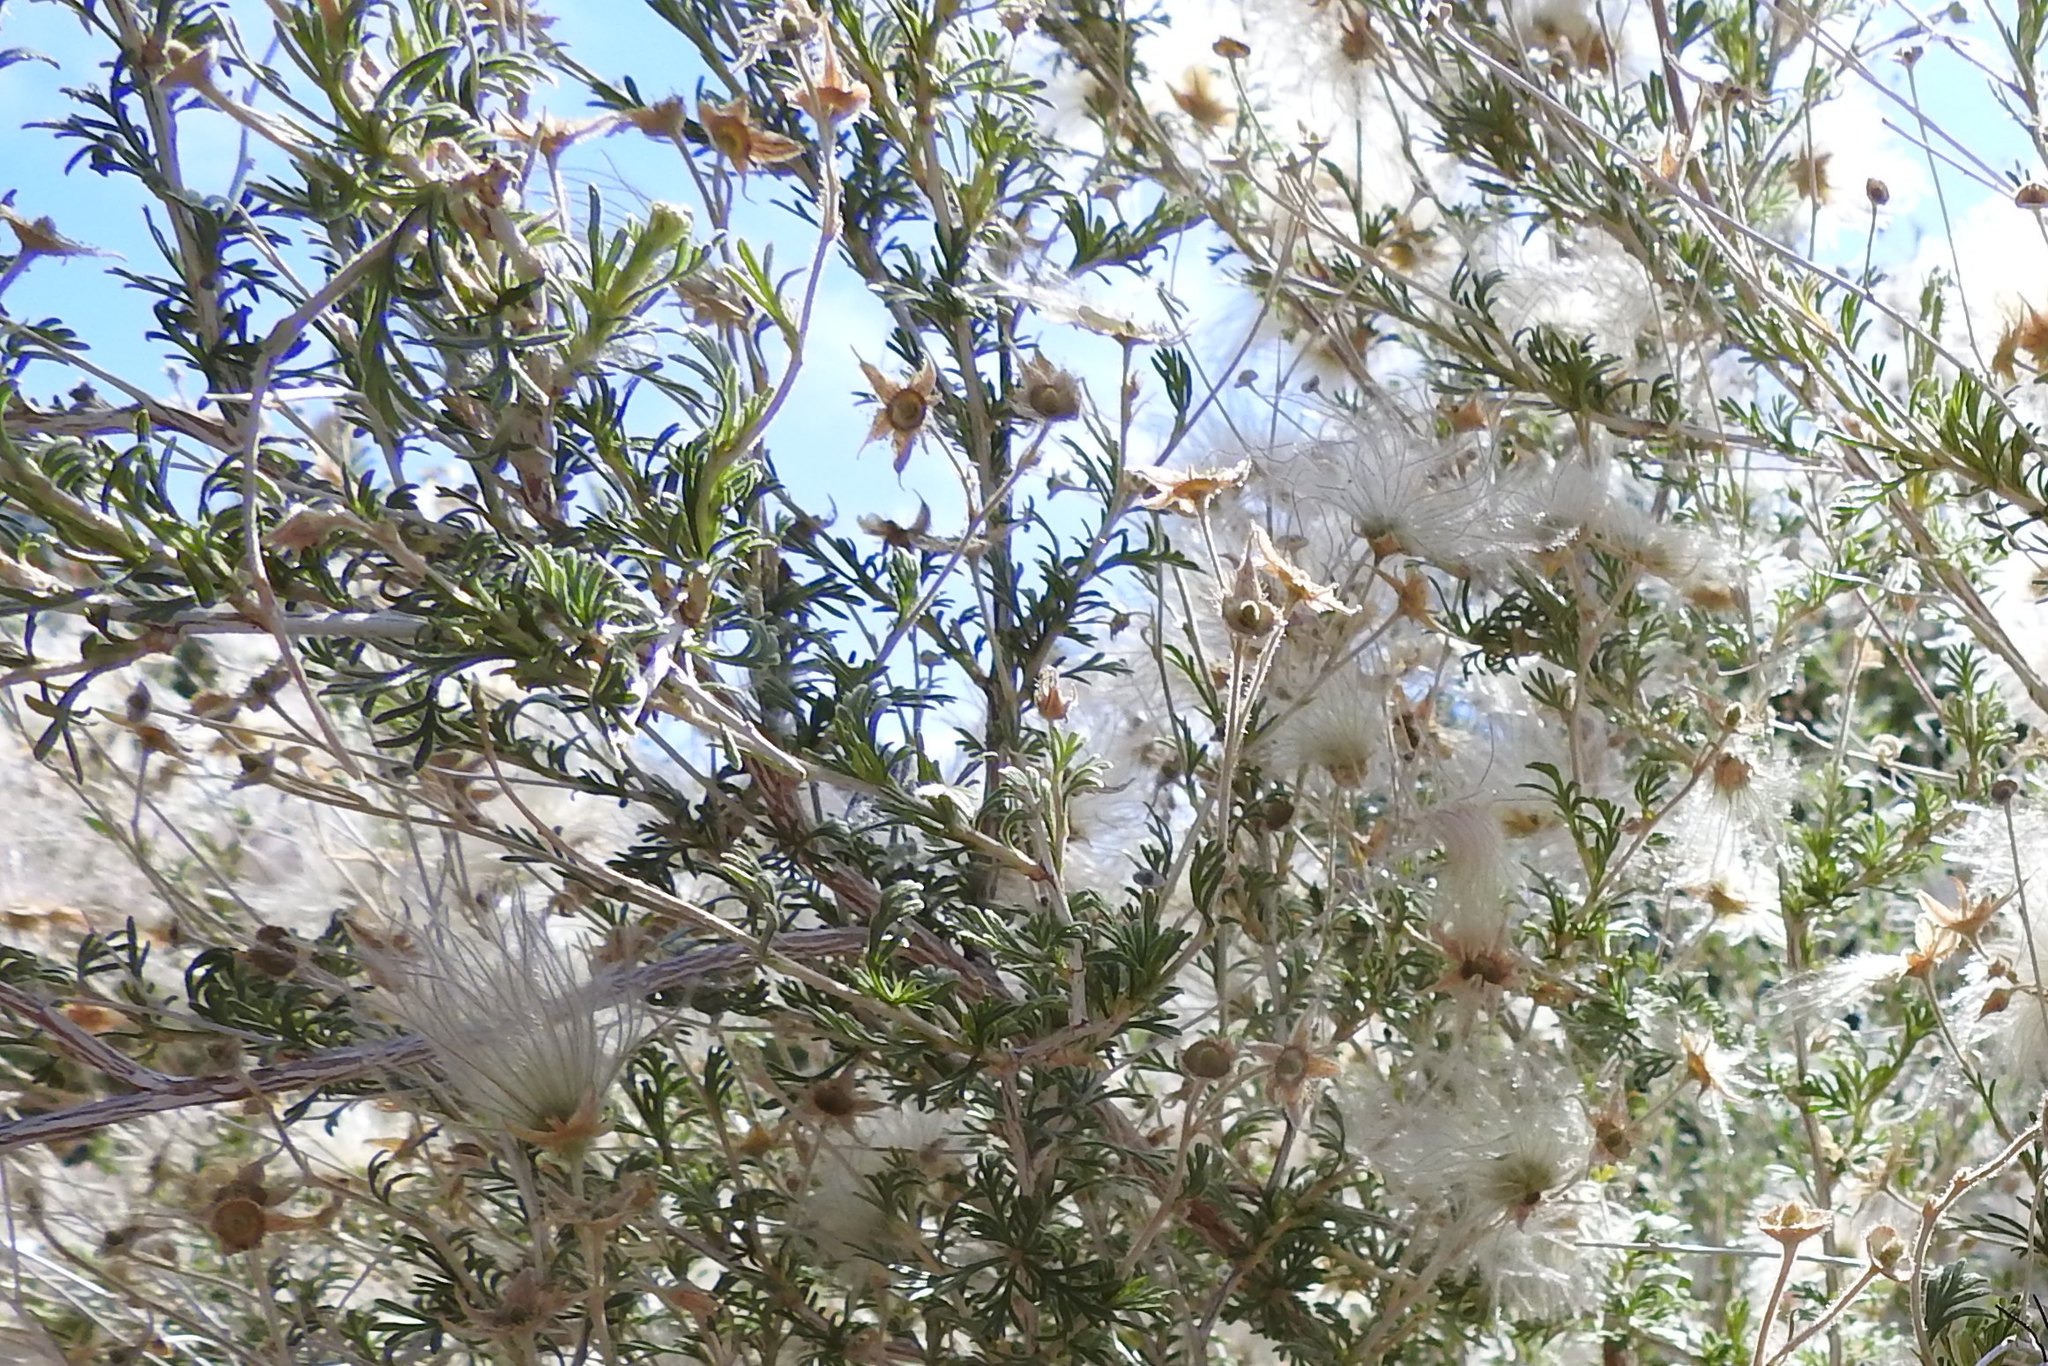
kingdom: Plantae
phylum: Tracheophyta
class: Magnoliopsida
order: Rosales
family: Rosaceae
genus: Fallugia
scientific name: Fallugia paradoxa
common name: Apache-plume
